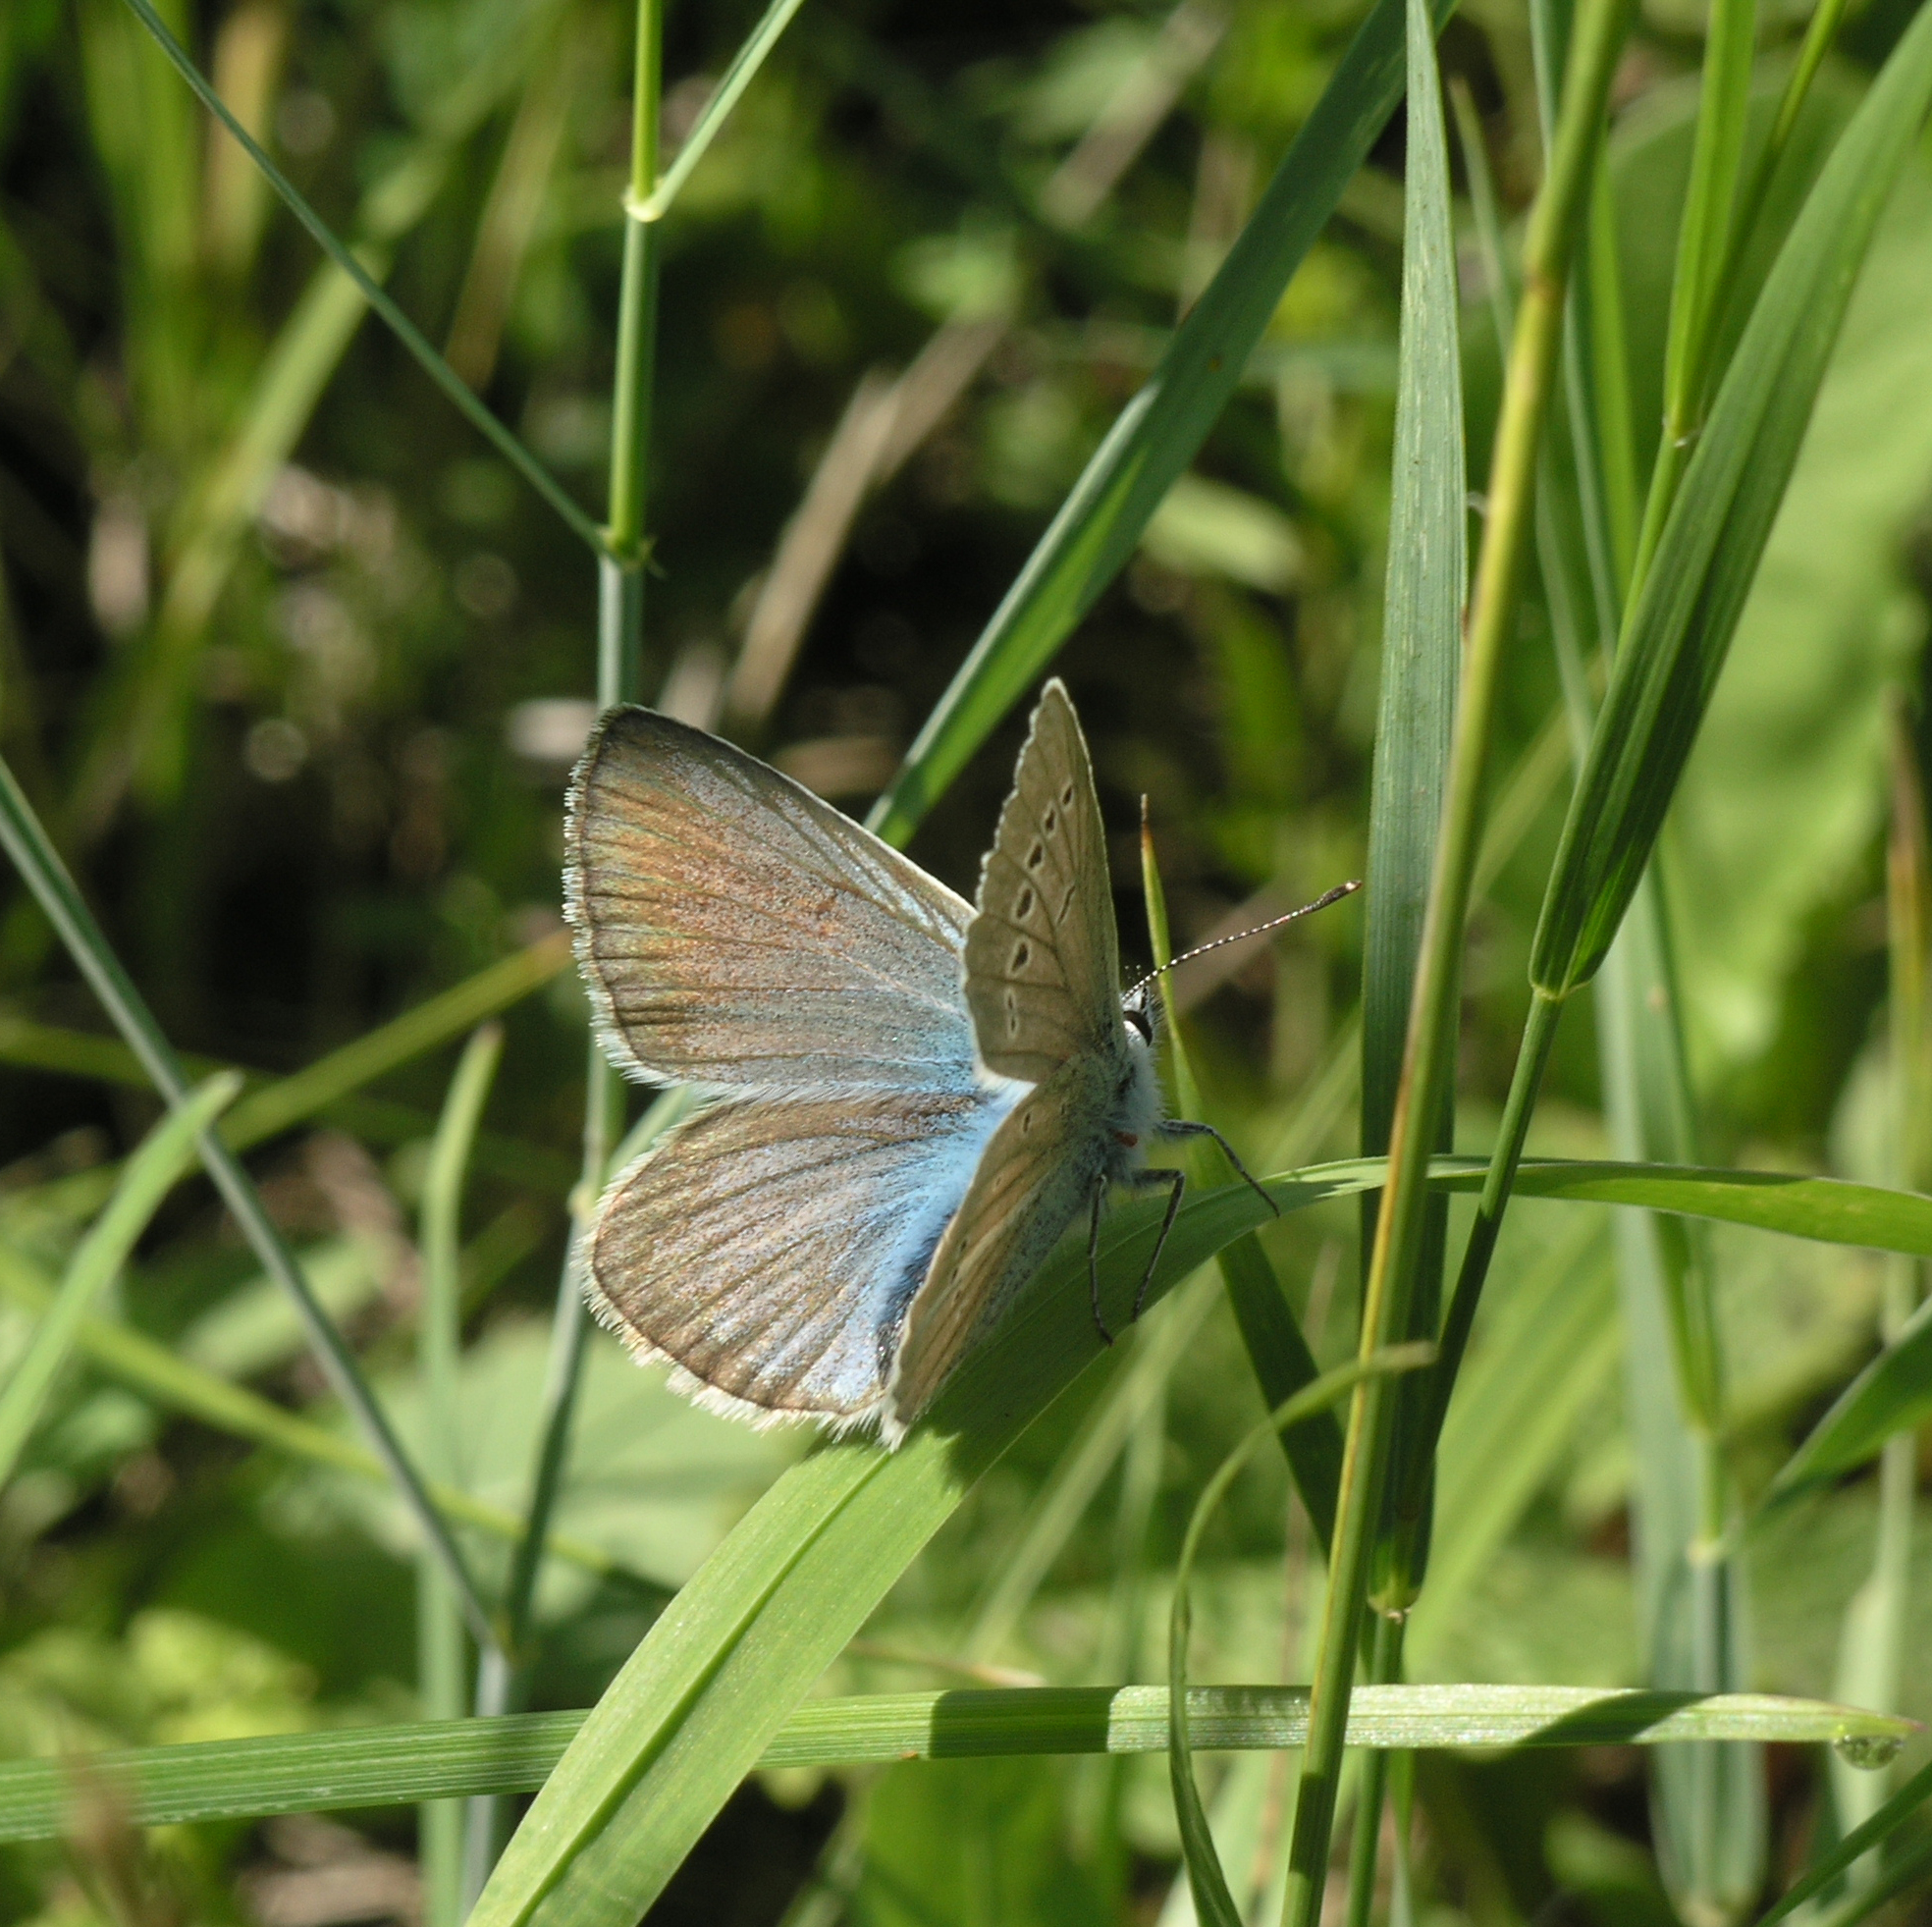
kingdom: Animalia
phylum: Arthropoda
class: Insecta
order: Lepidoptera
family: Lycaenidae
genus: Agrodiaetus
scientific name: Agrodiaetus damon
